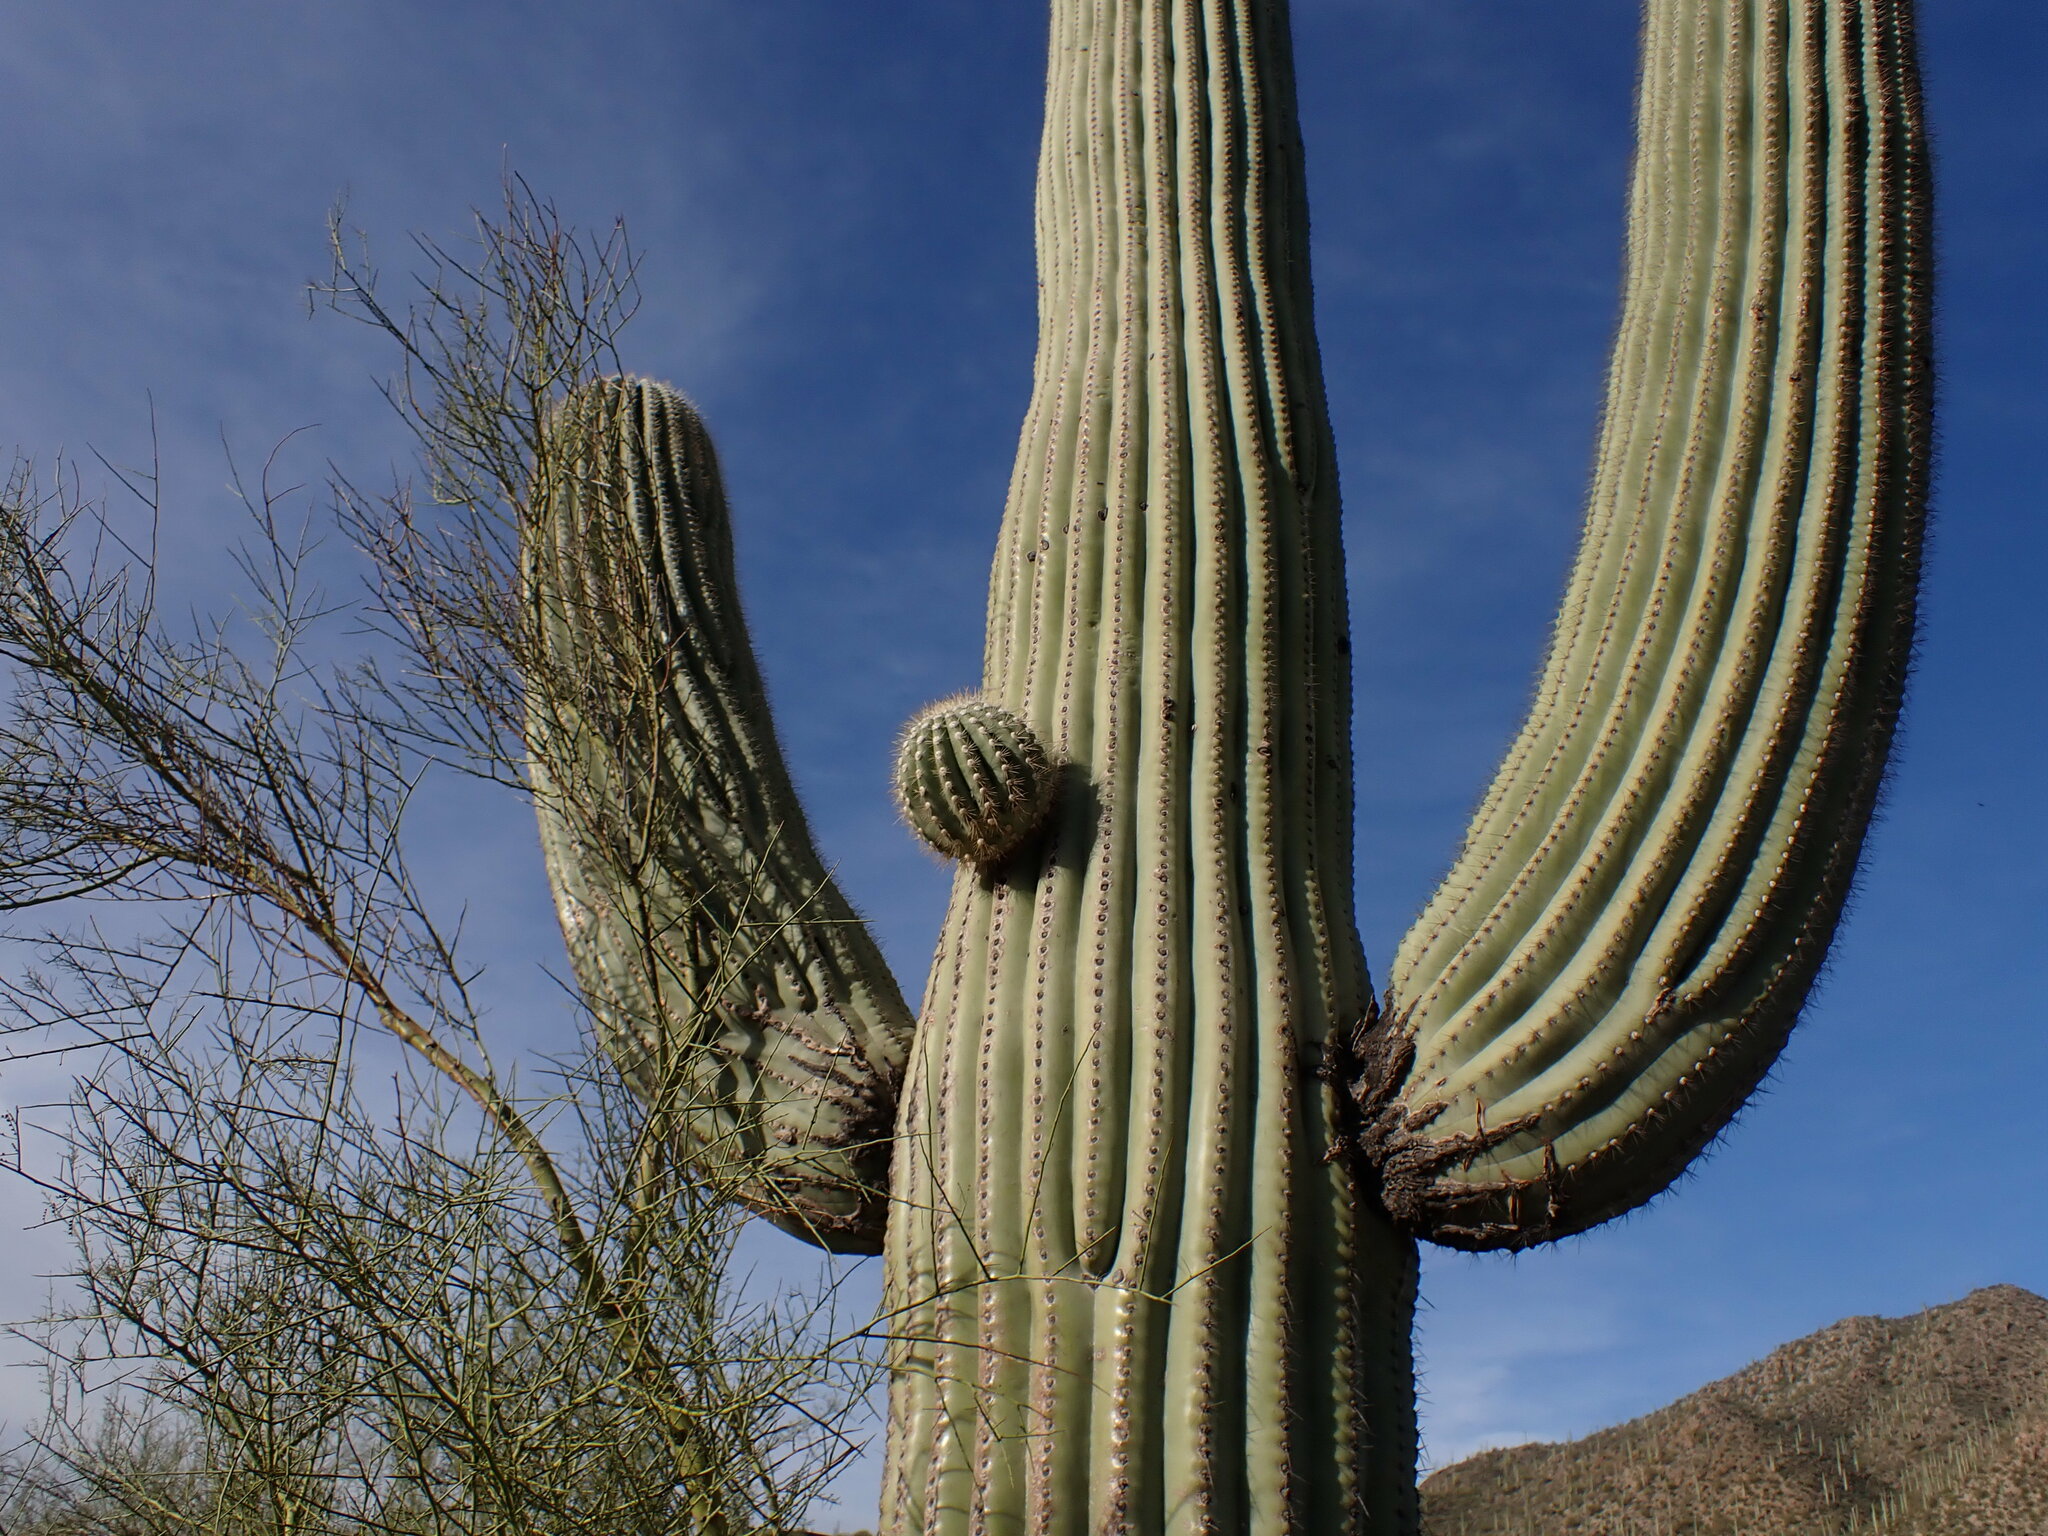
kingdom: Plantae
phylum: Tracheophyta
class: Magnoliopsida
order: Caryophyllales
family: Cactaceae
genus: Carnegiea
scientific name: Carnegiea gigantea
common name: Saguaro
